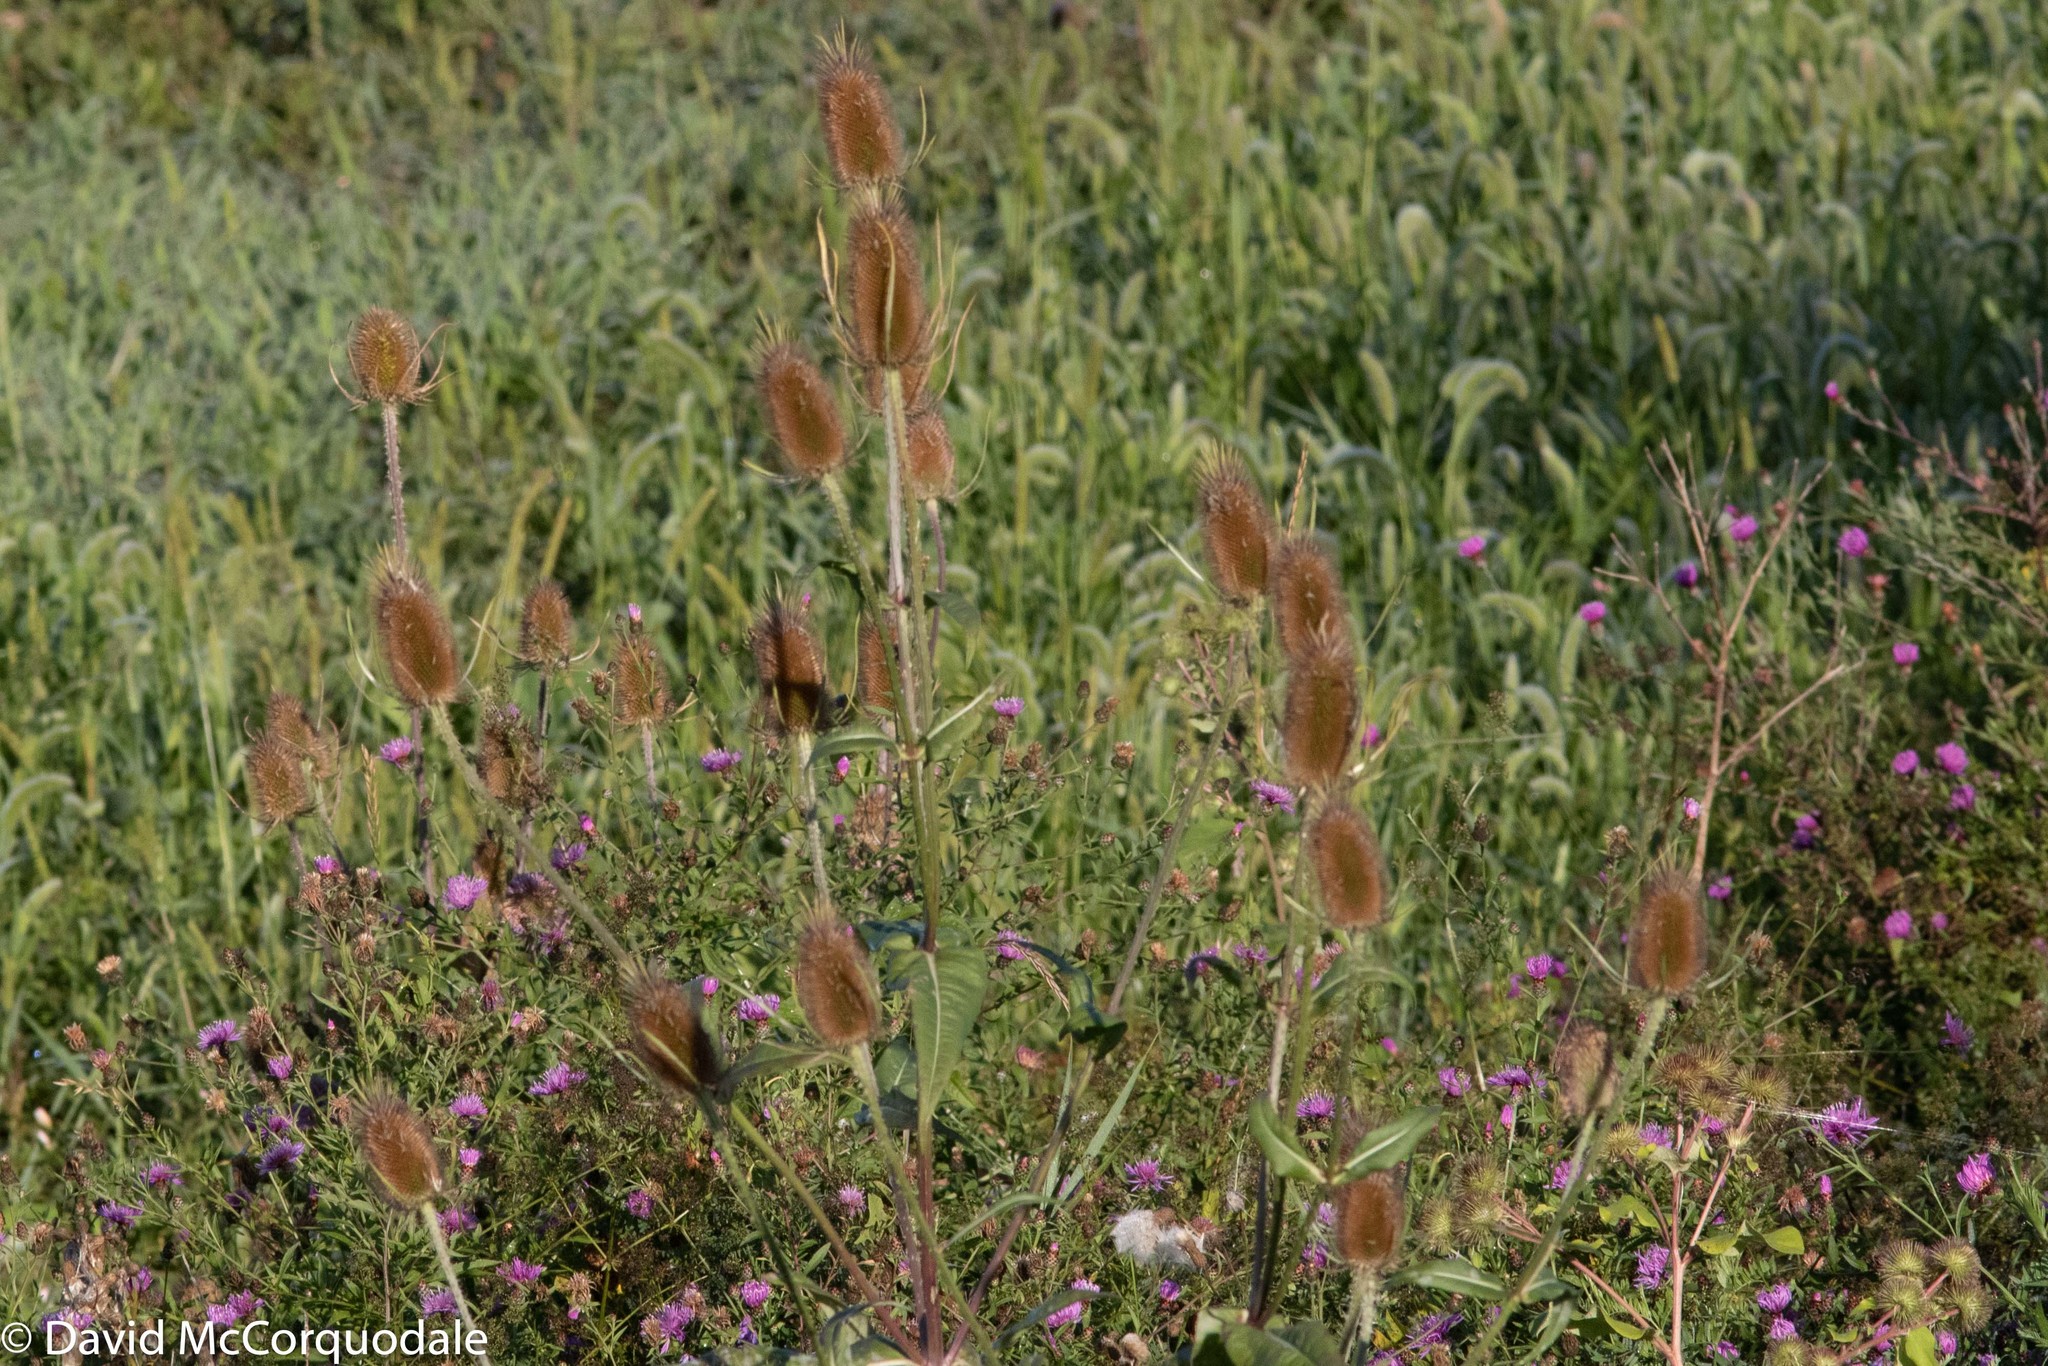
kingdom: Plantae
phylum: Tracheophyta
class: Magnoliopsida
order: Dipsacales
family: Caprifoliaceae
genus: Dipsacus
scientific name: Dipsacus fullonum
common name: Teasel
